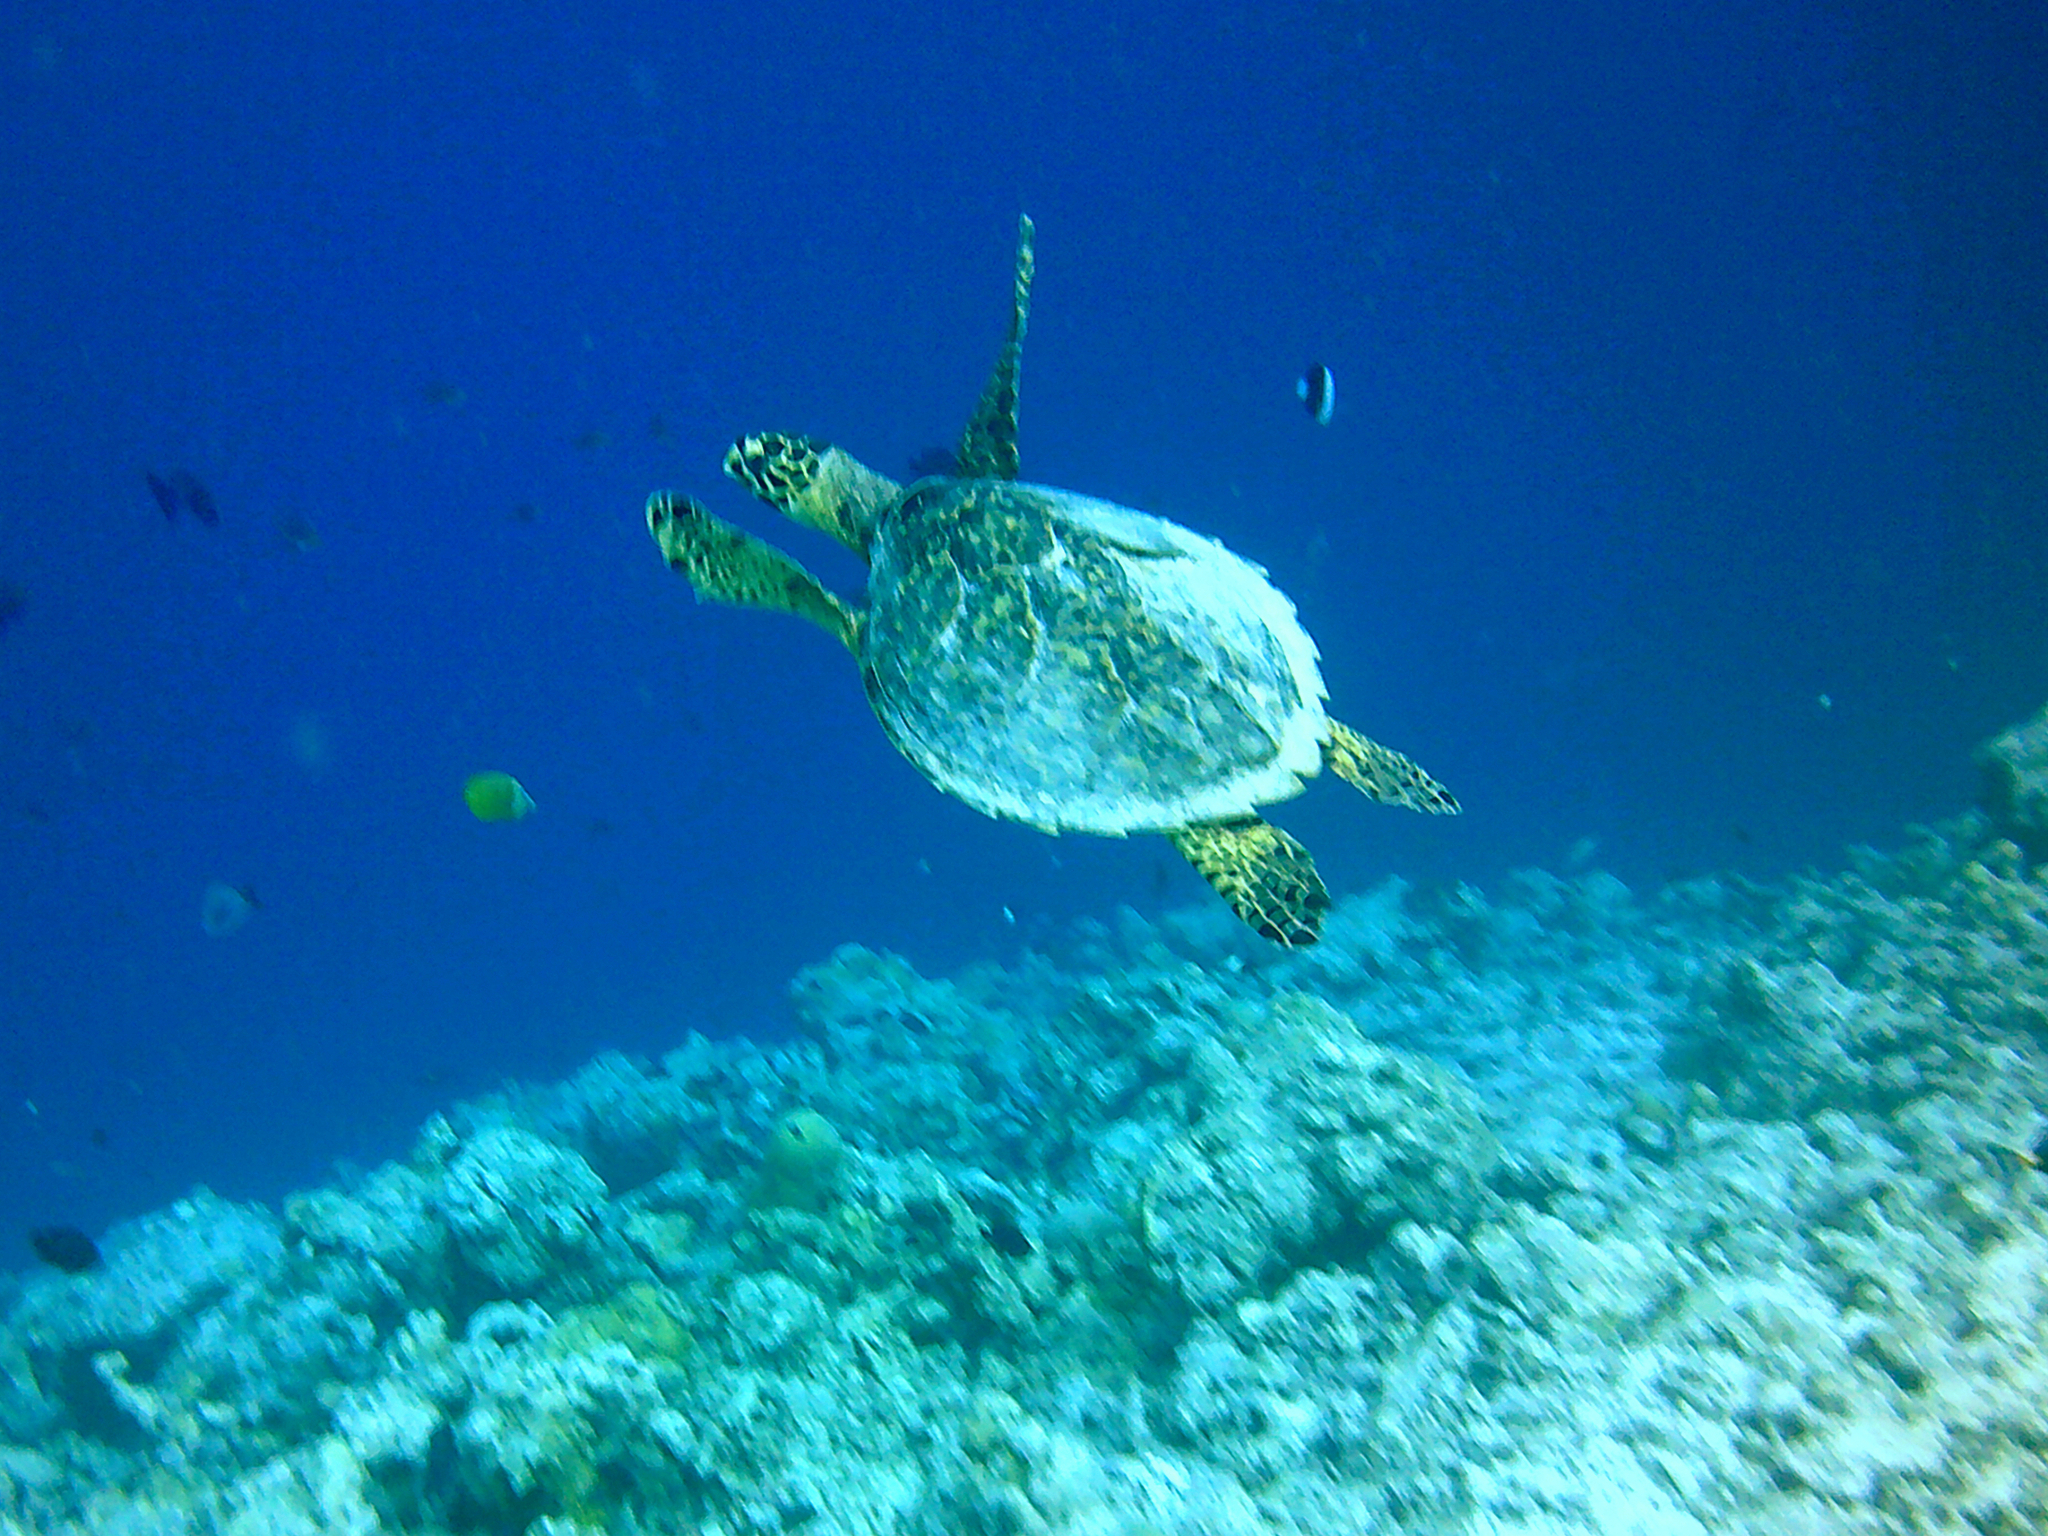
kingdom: Animalia
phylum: Chordata
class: Testudines
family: Cheloniidae
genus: Eretmochelys
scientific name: Eretmochelys imbricata
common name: Hawksbill turtle
